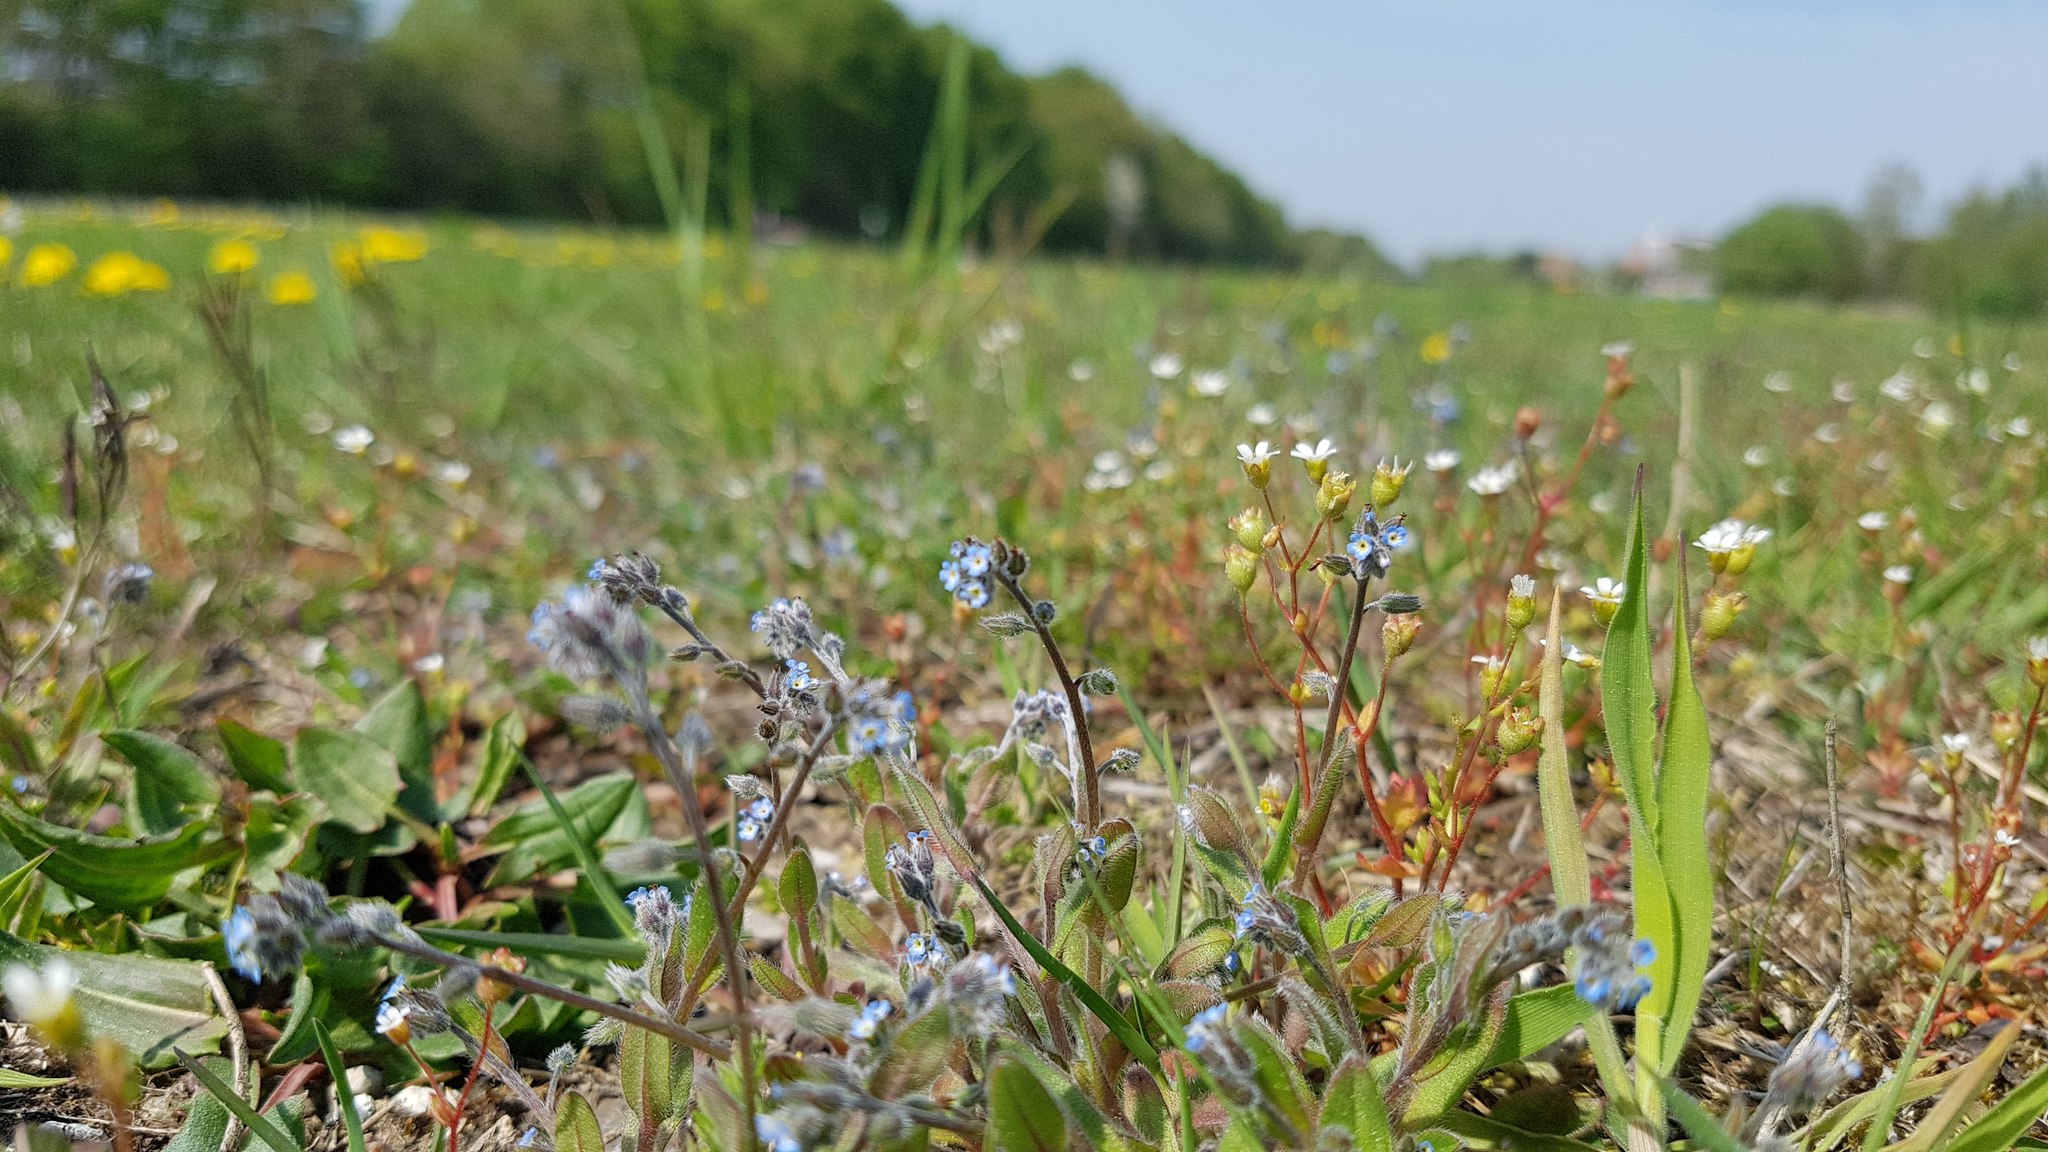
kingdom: Plantae
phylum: Tracheophyta
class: Magnoliopsida
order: Boraginales
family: Boraginaceae
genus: Myosotis
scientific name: Myosotis ramosissima
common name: Early forget-me-not
